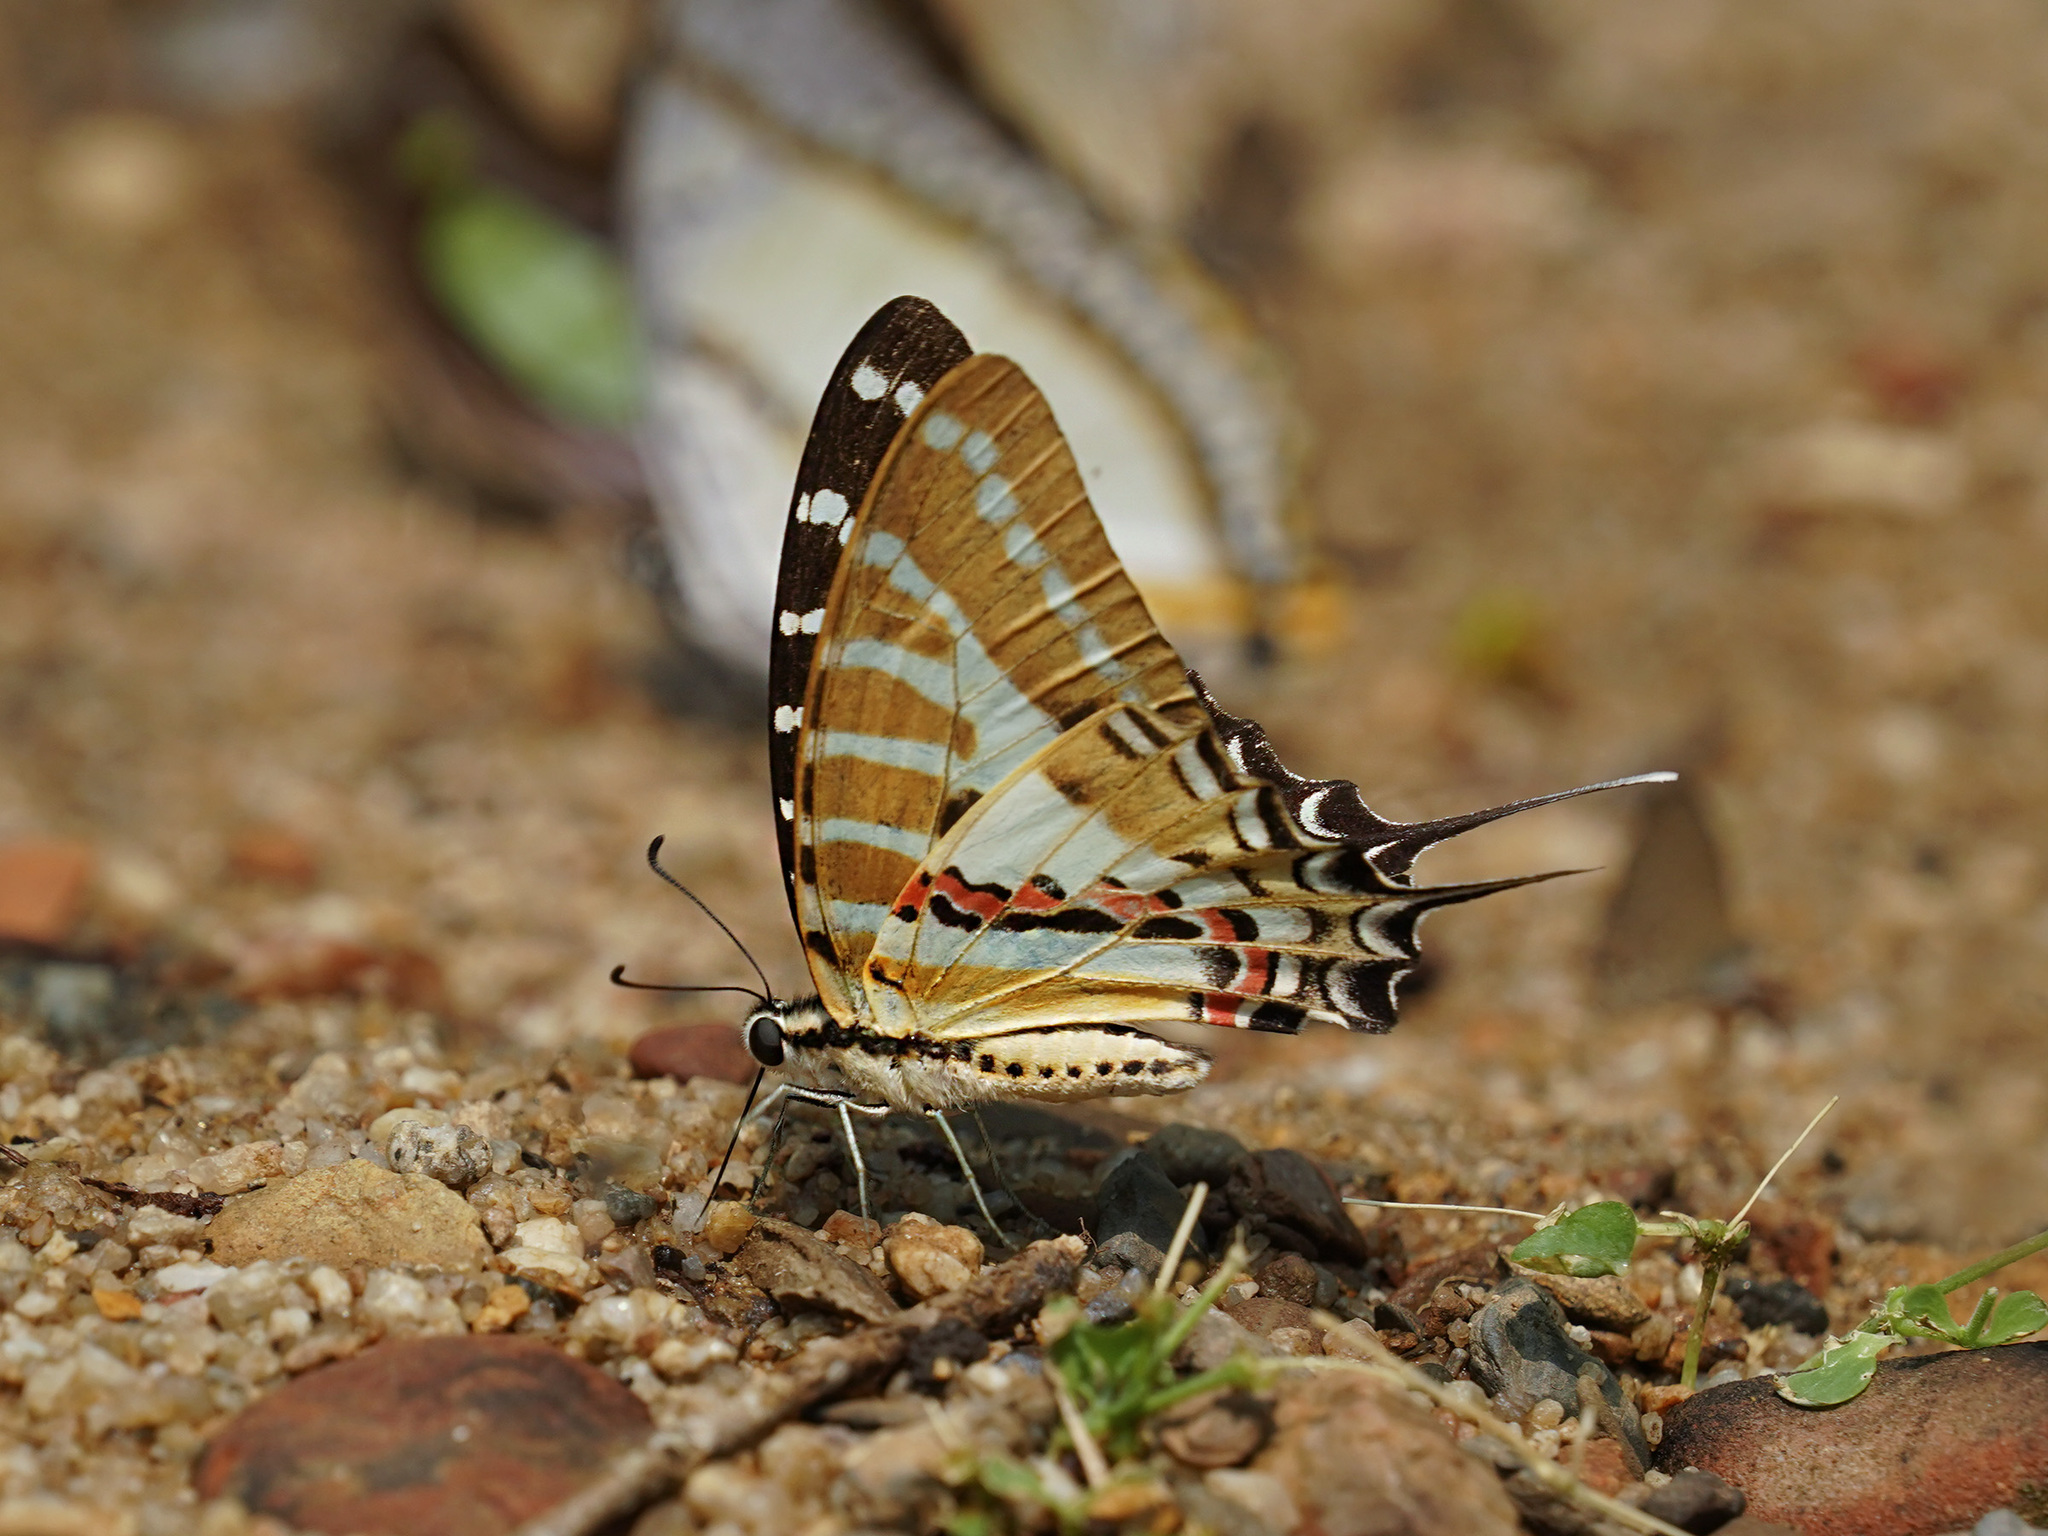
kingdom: Animalia
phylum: Arthropoda
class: Insecta
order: Lepidoptera
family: Papilionidae
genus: Graphium
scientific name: Graphium nomius
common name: Spot swordtail
